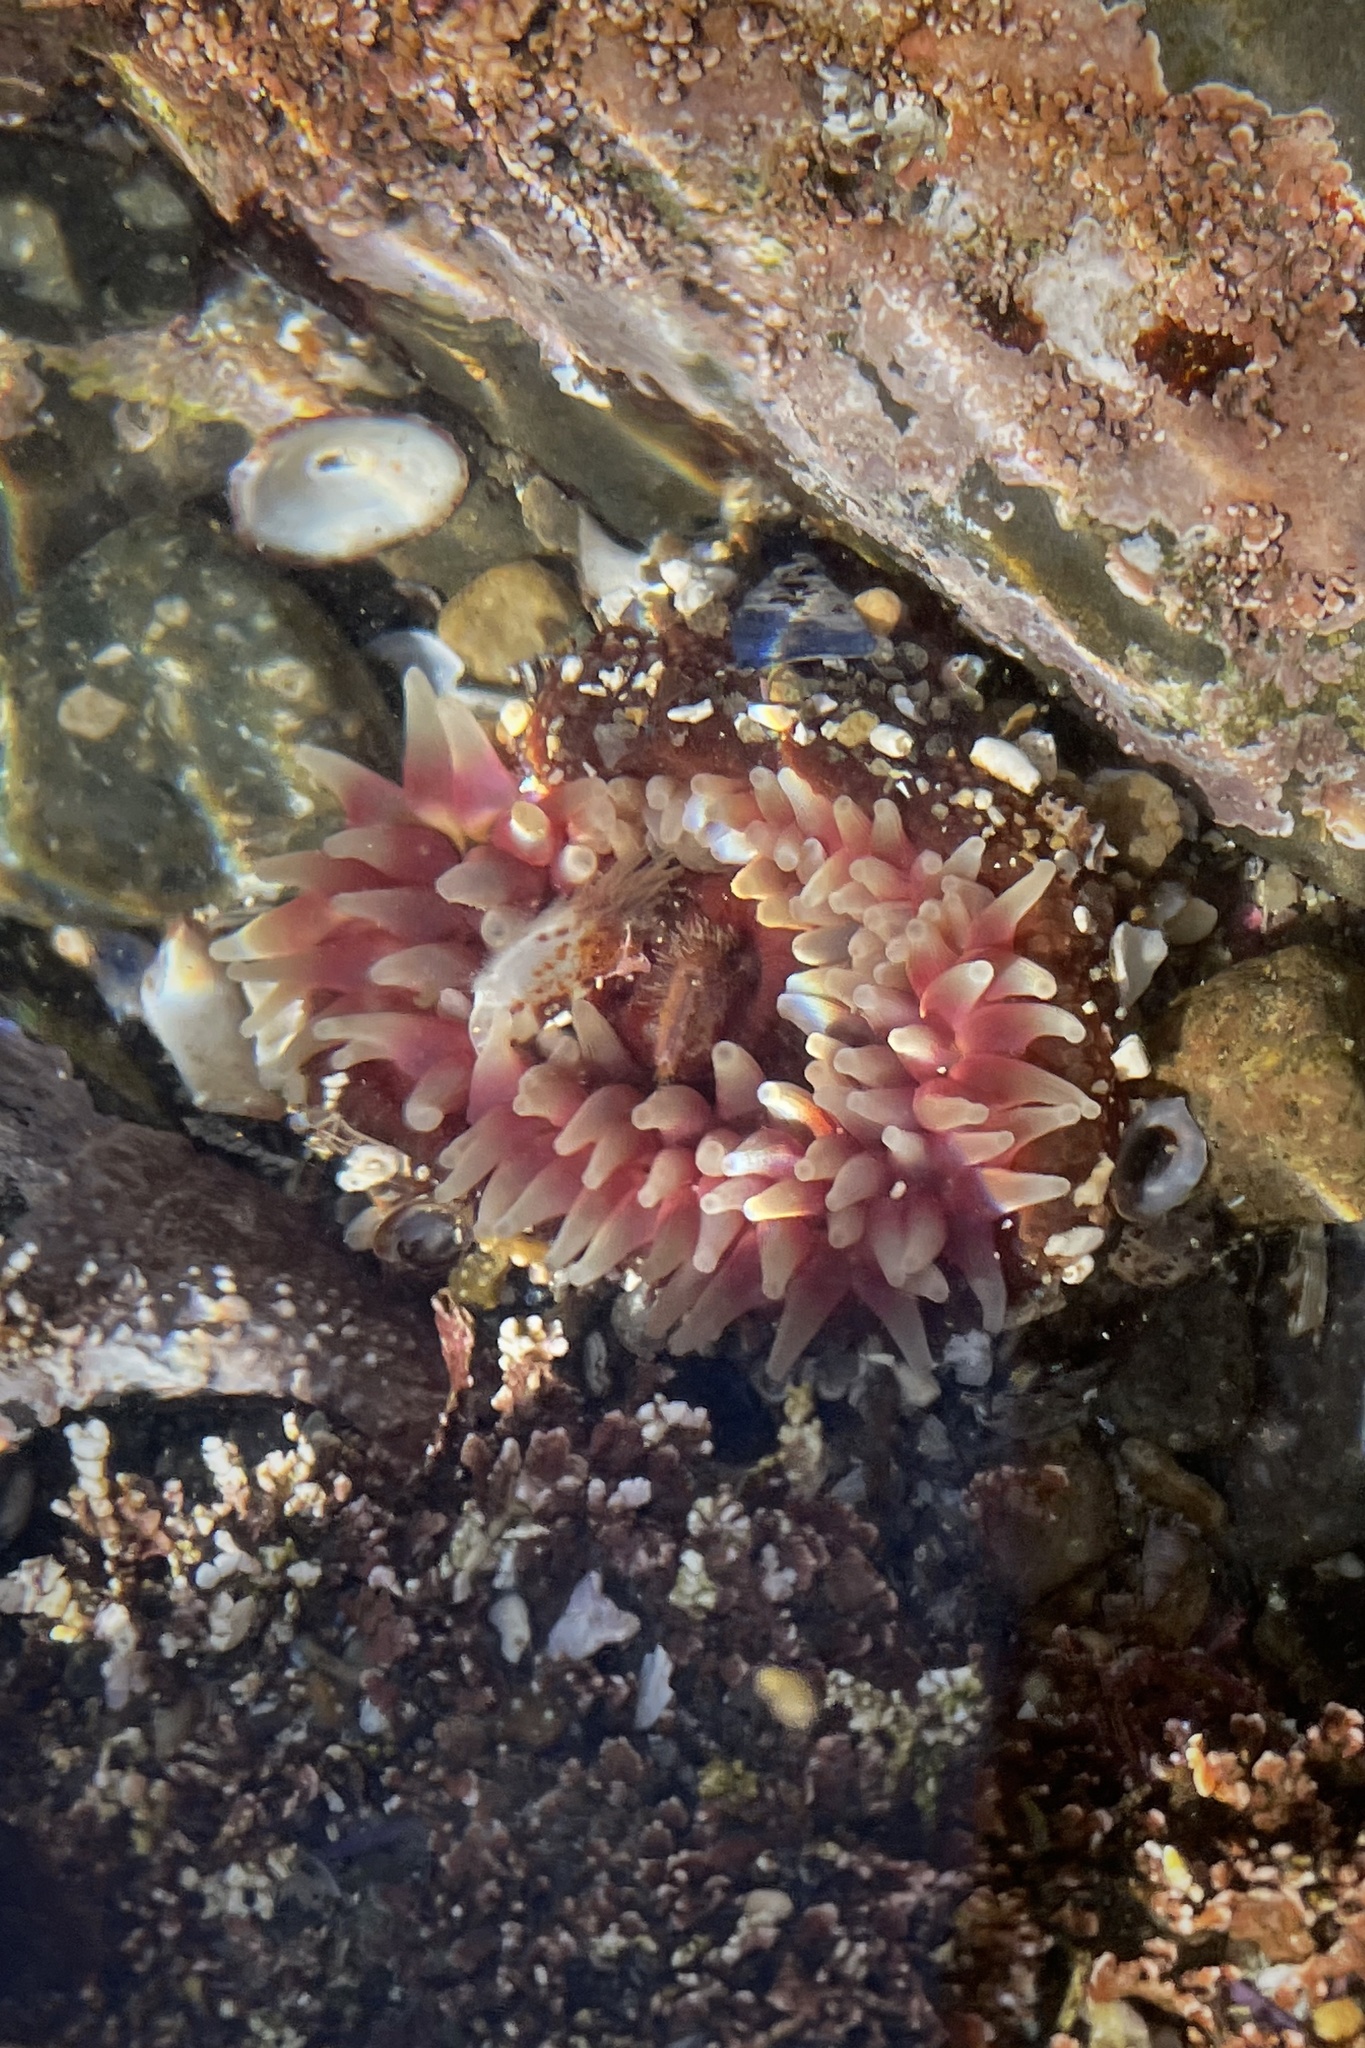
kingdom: Animalia
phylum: Cnidaria
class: Anthozoa
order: Actiniaria
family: Actiniidae
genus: Urticina
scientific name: Urticina clandestina
